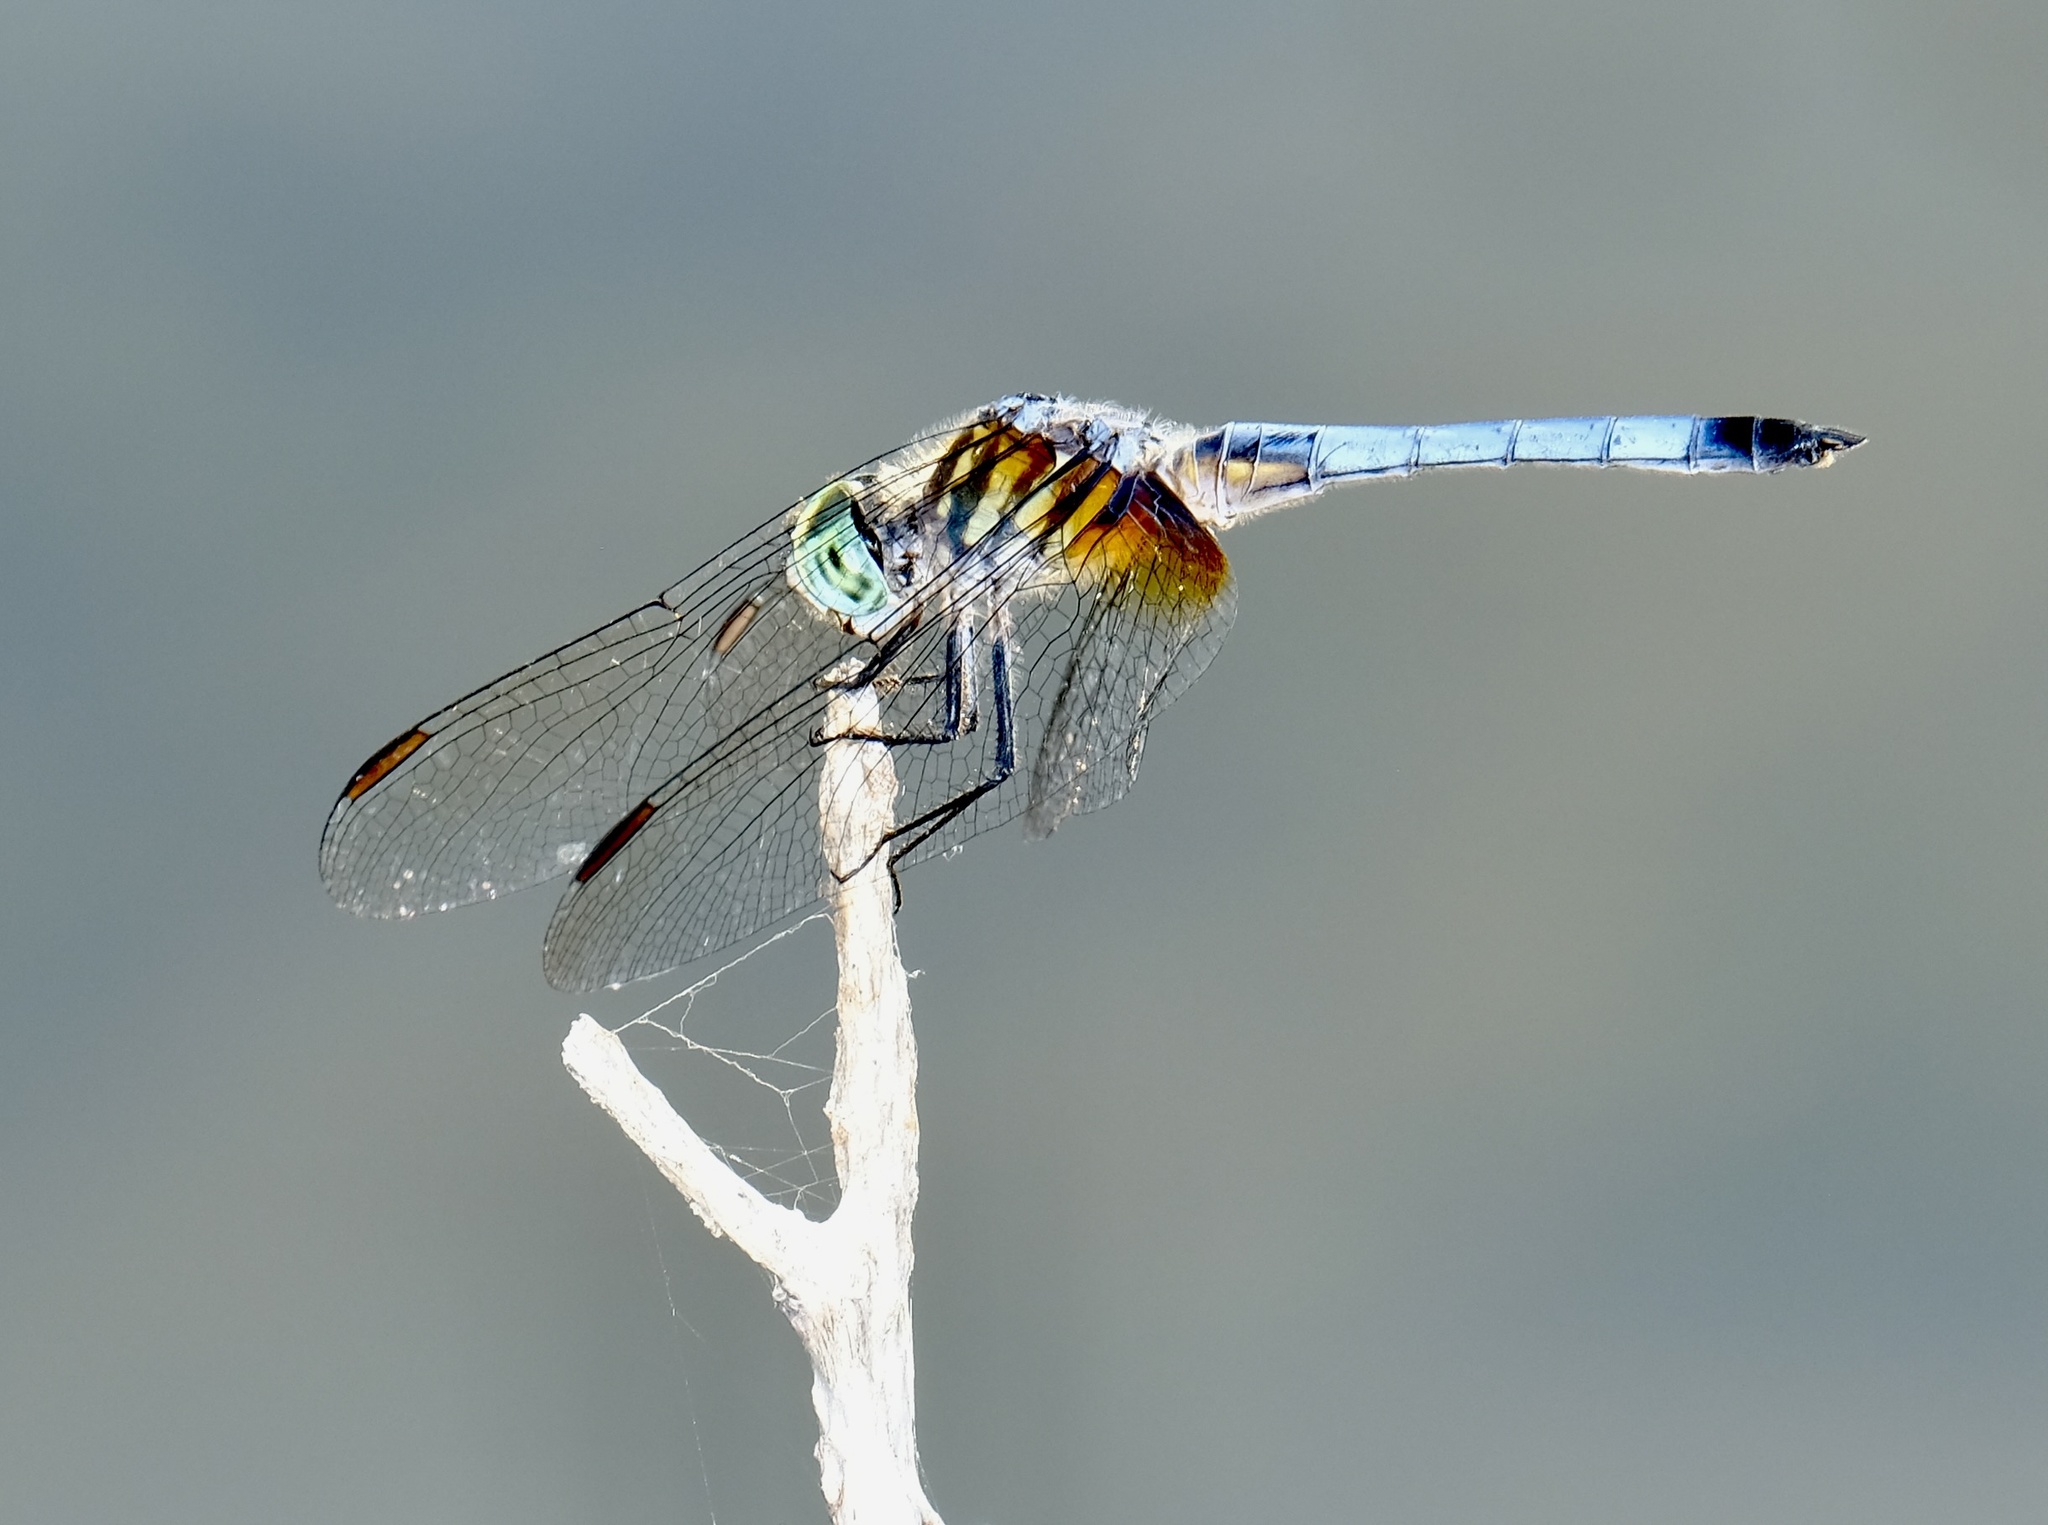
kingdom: Animalia
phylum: Arthropoda
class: Insecta
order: Odonata
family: Libellulidae
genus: Pachydiplax
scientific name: Pachydiplax longipennis
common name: Blue dasher
